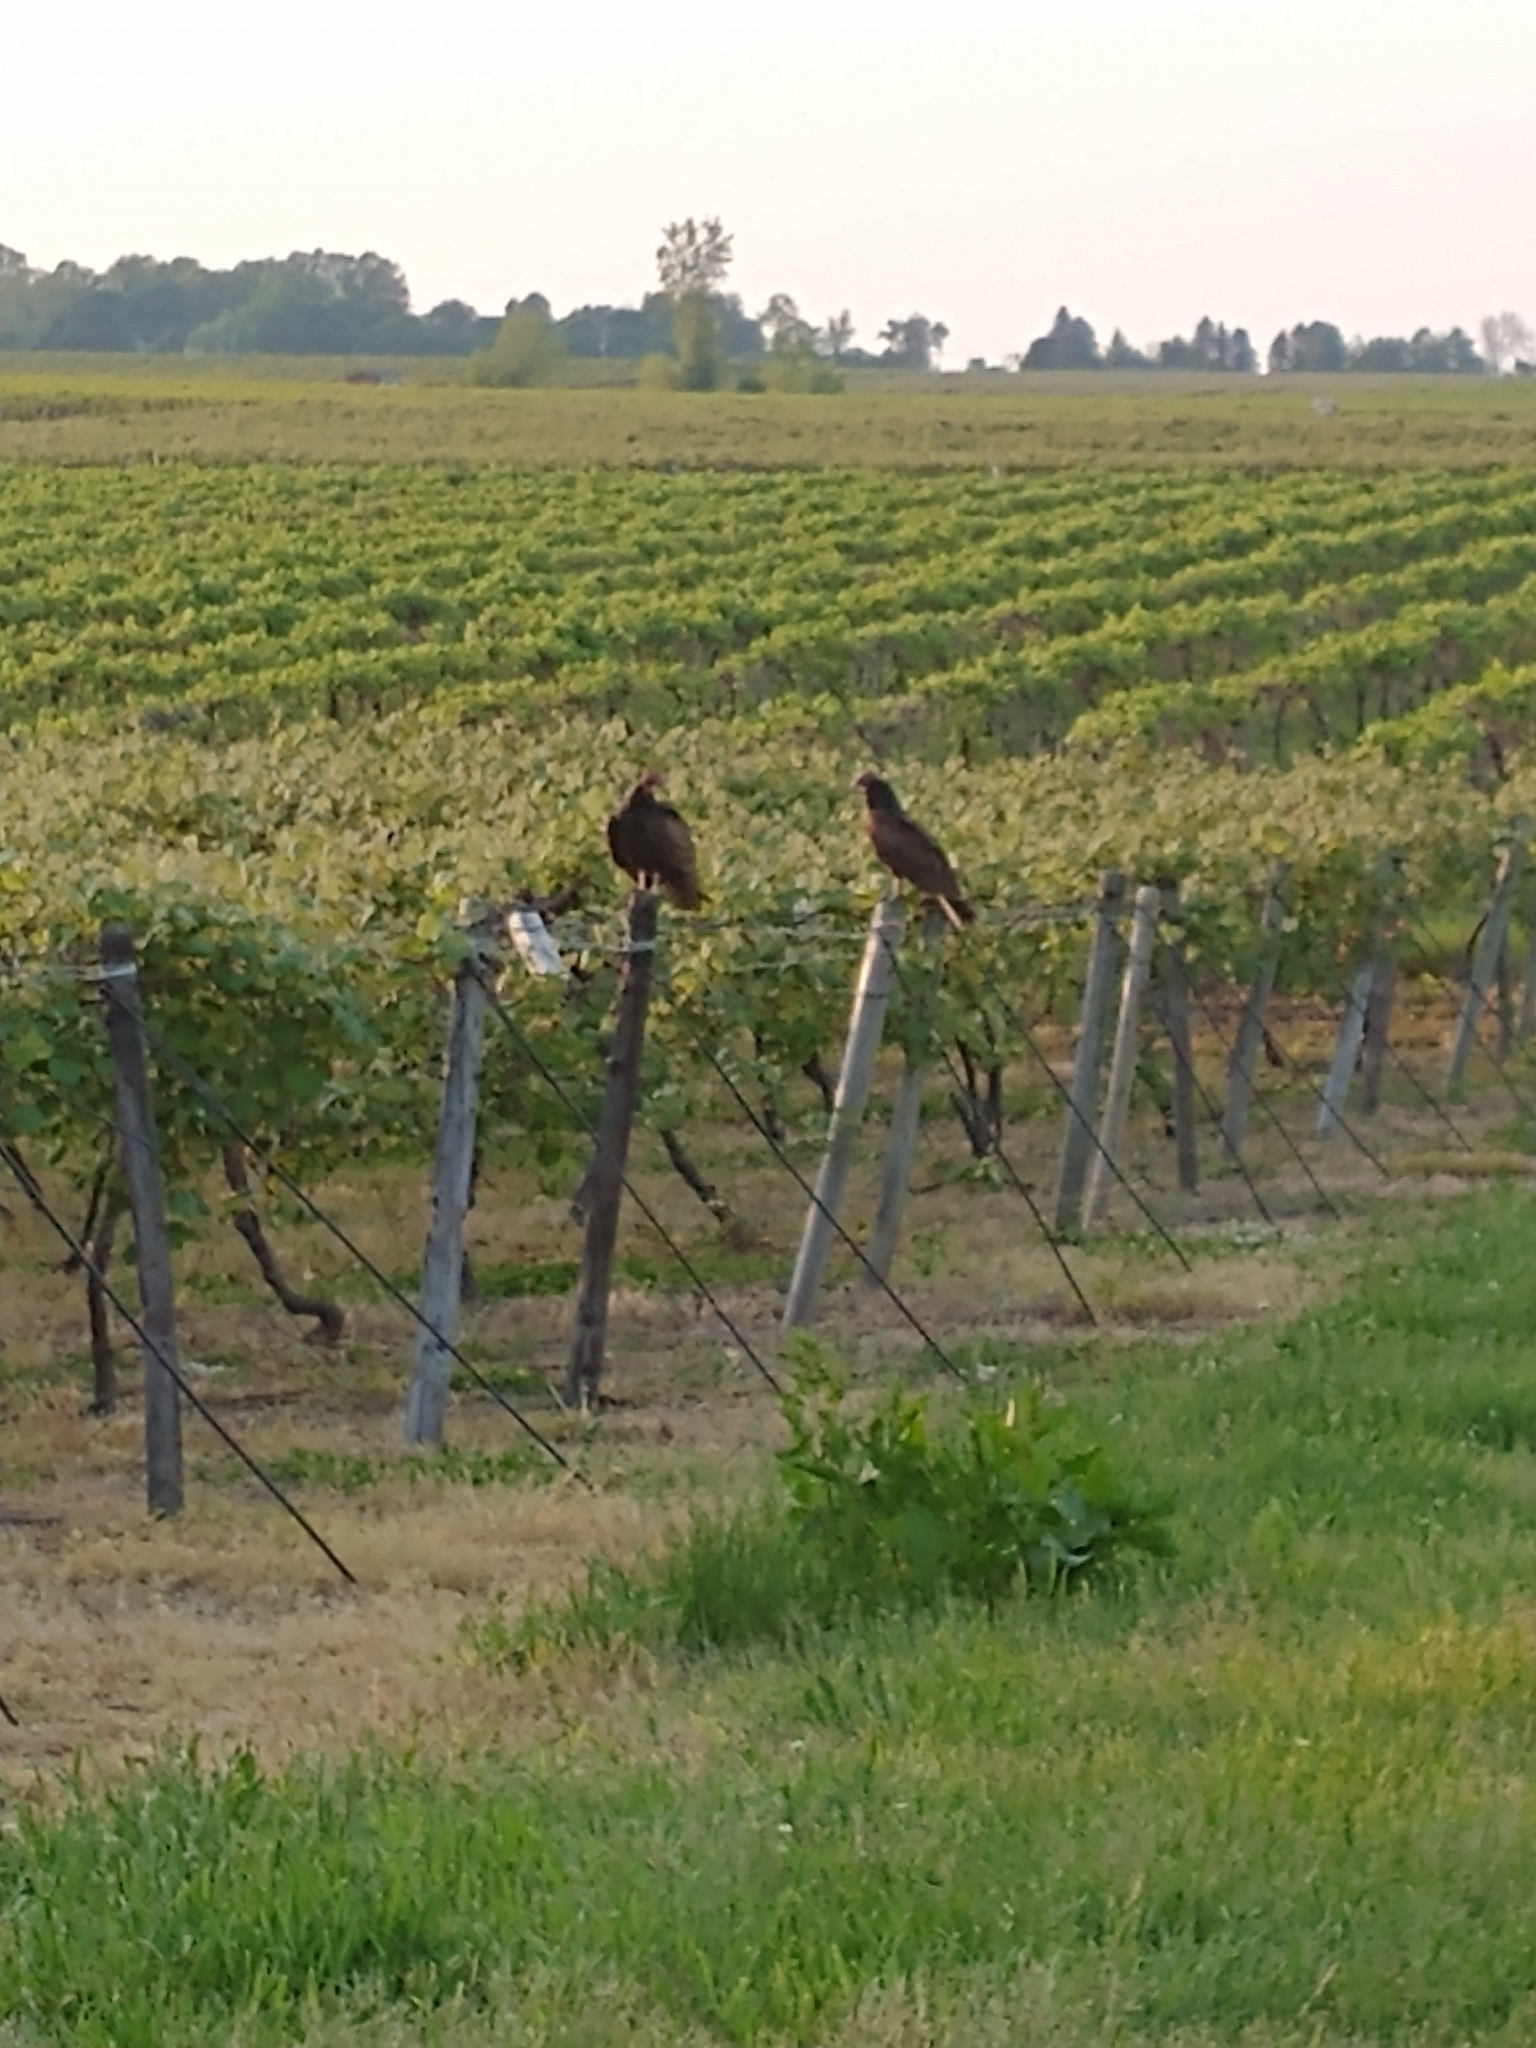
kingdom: Animalia
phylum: Chordata
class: Aves
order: Accipitriformes
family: Cathartidae
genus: Cathartes
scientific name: Cathartes aura
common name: Turkey vulture
